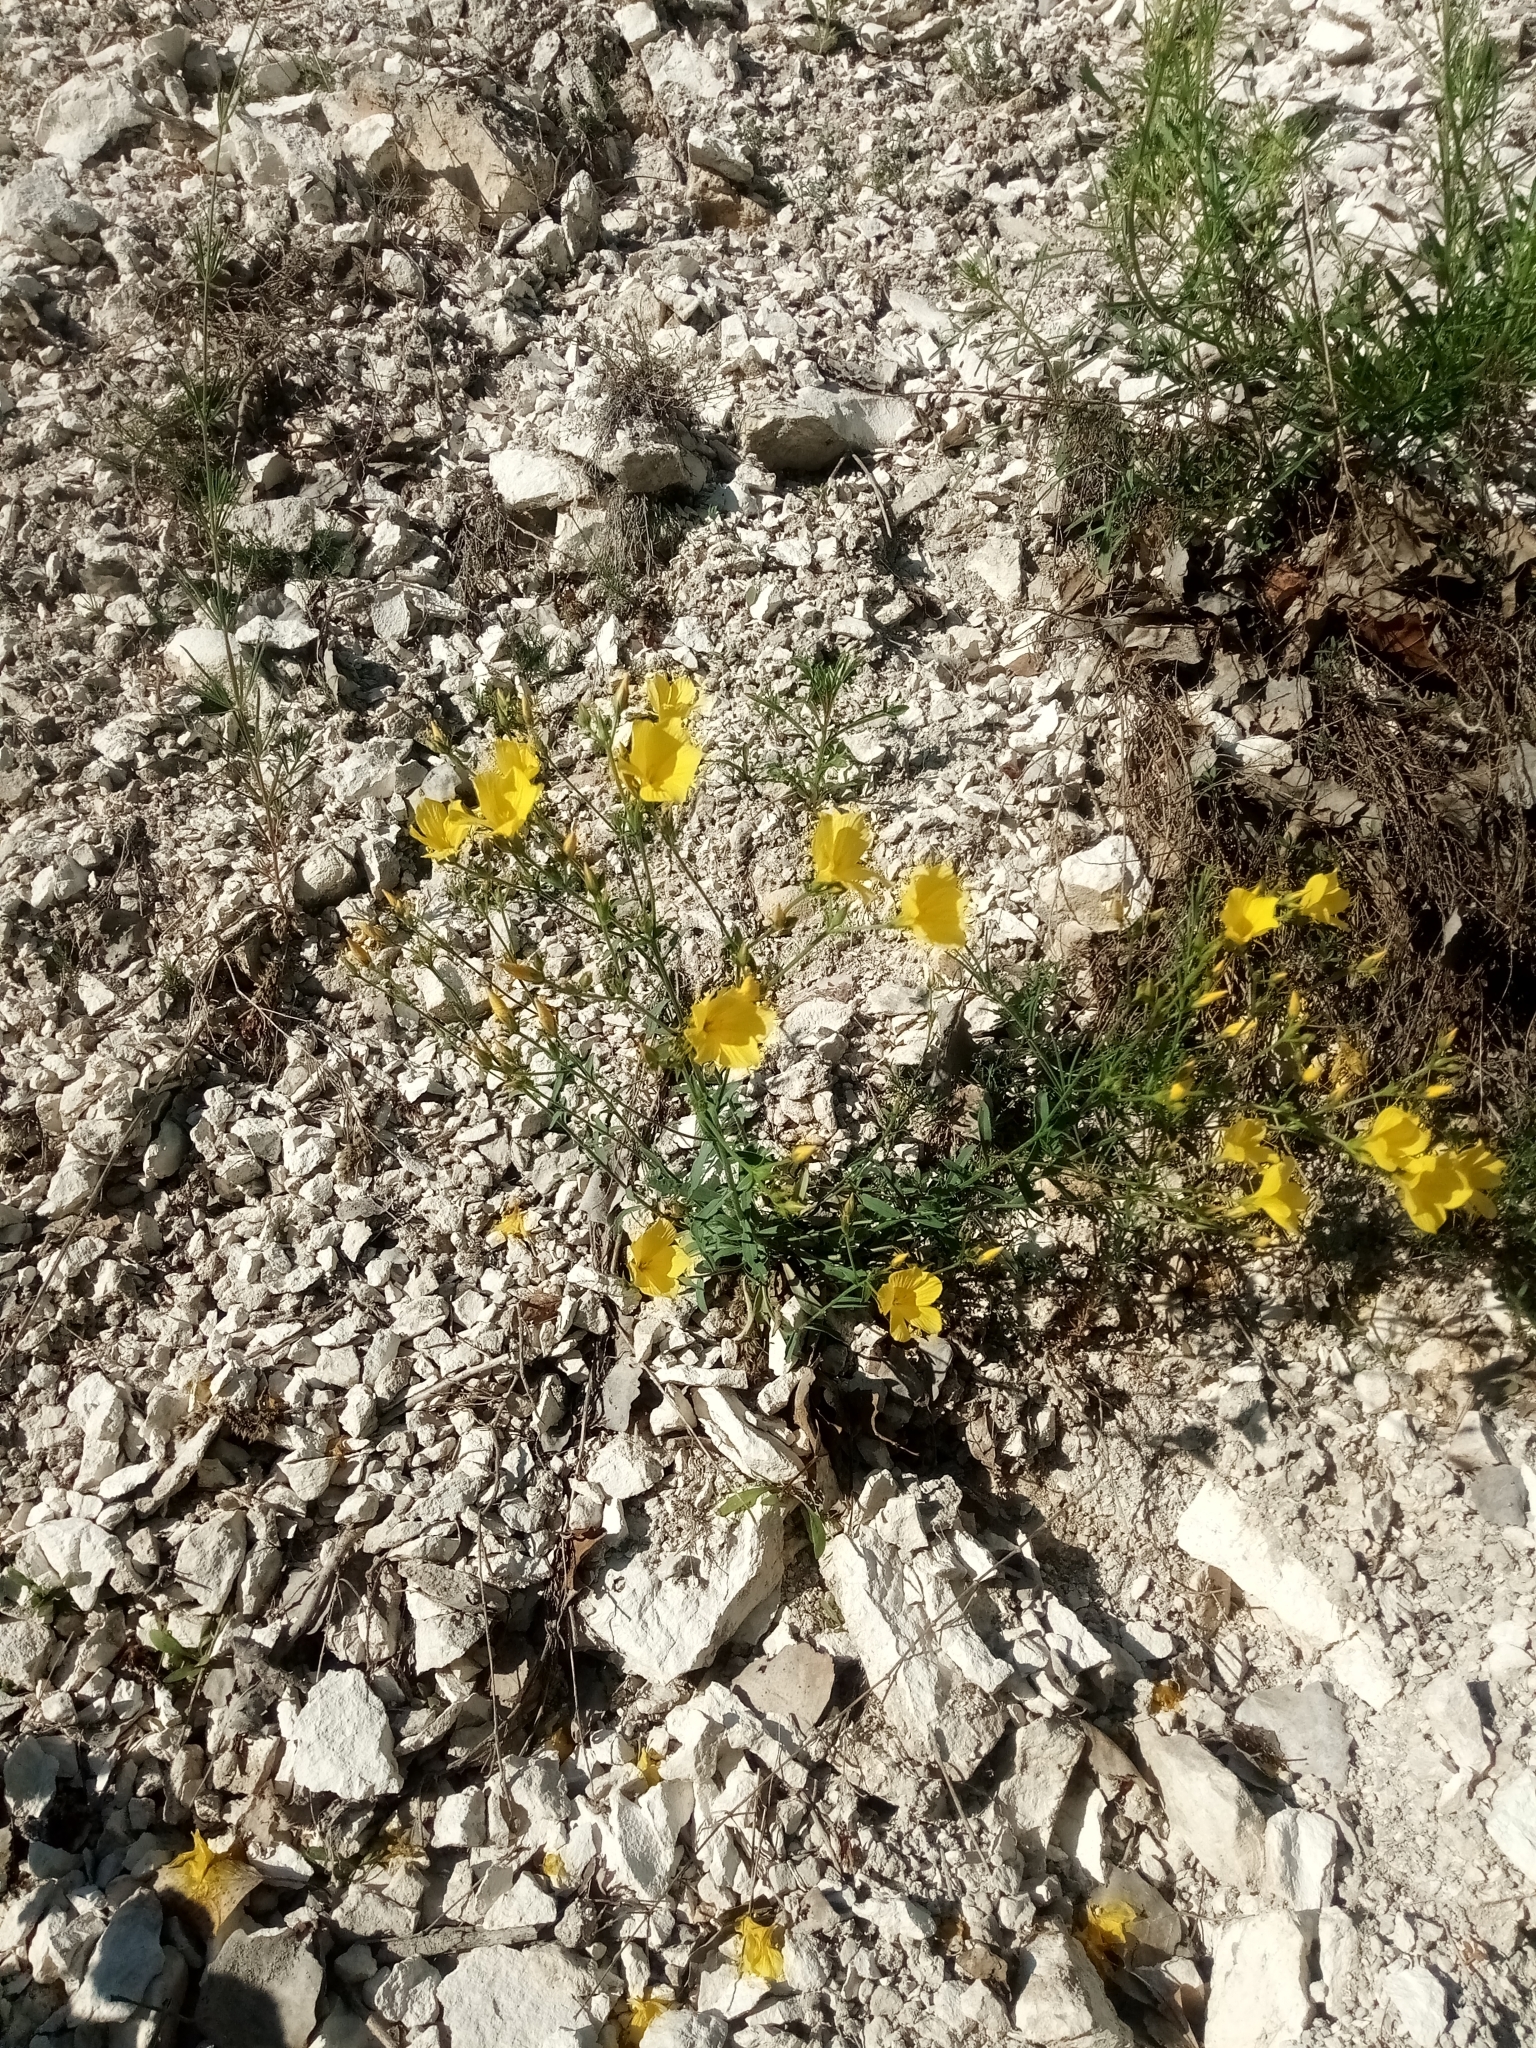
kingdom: Plantae
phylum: Tracheophyta
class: Magnoliopsida
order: Malpighiales
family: Linaceae
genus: Linum
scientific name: Linum ucranicum
